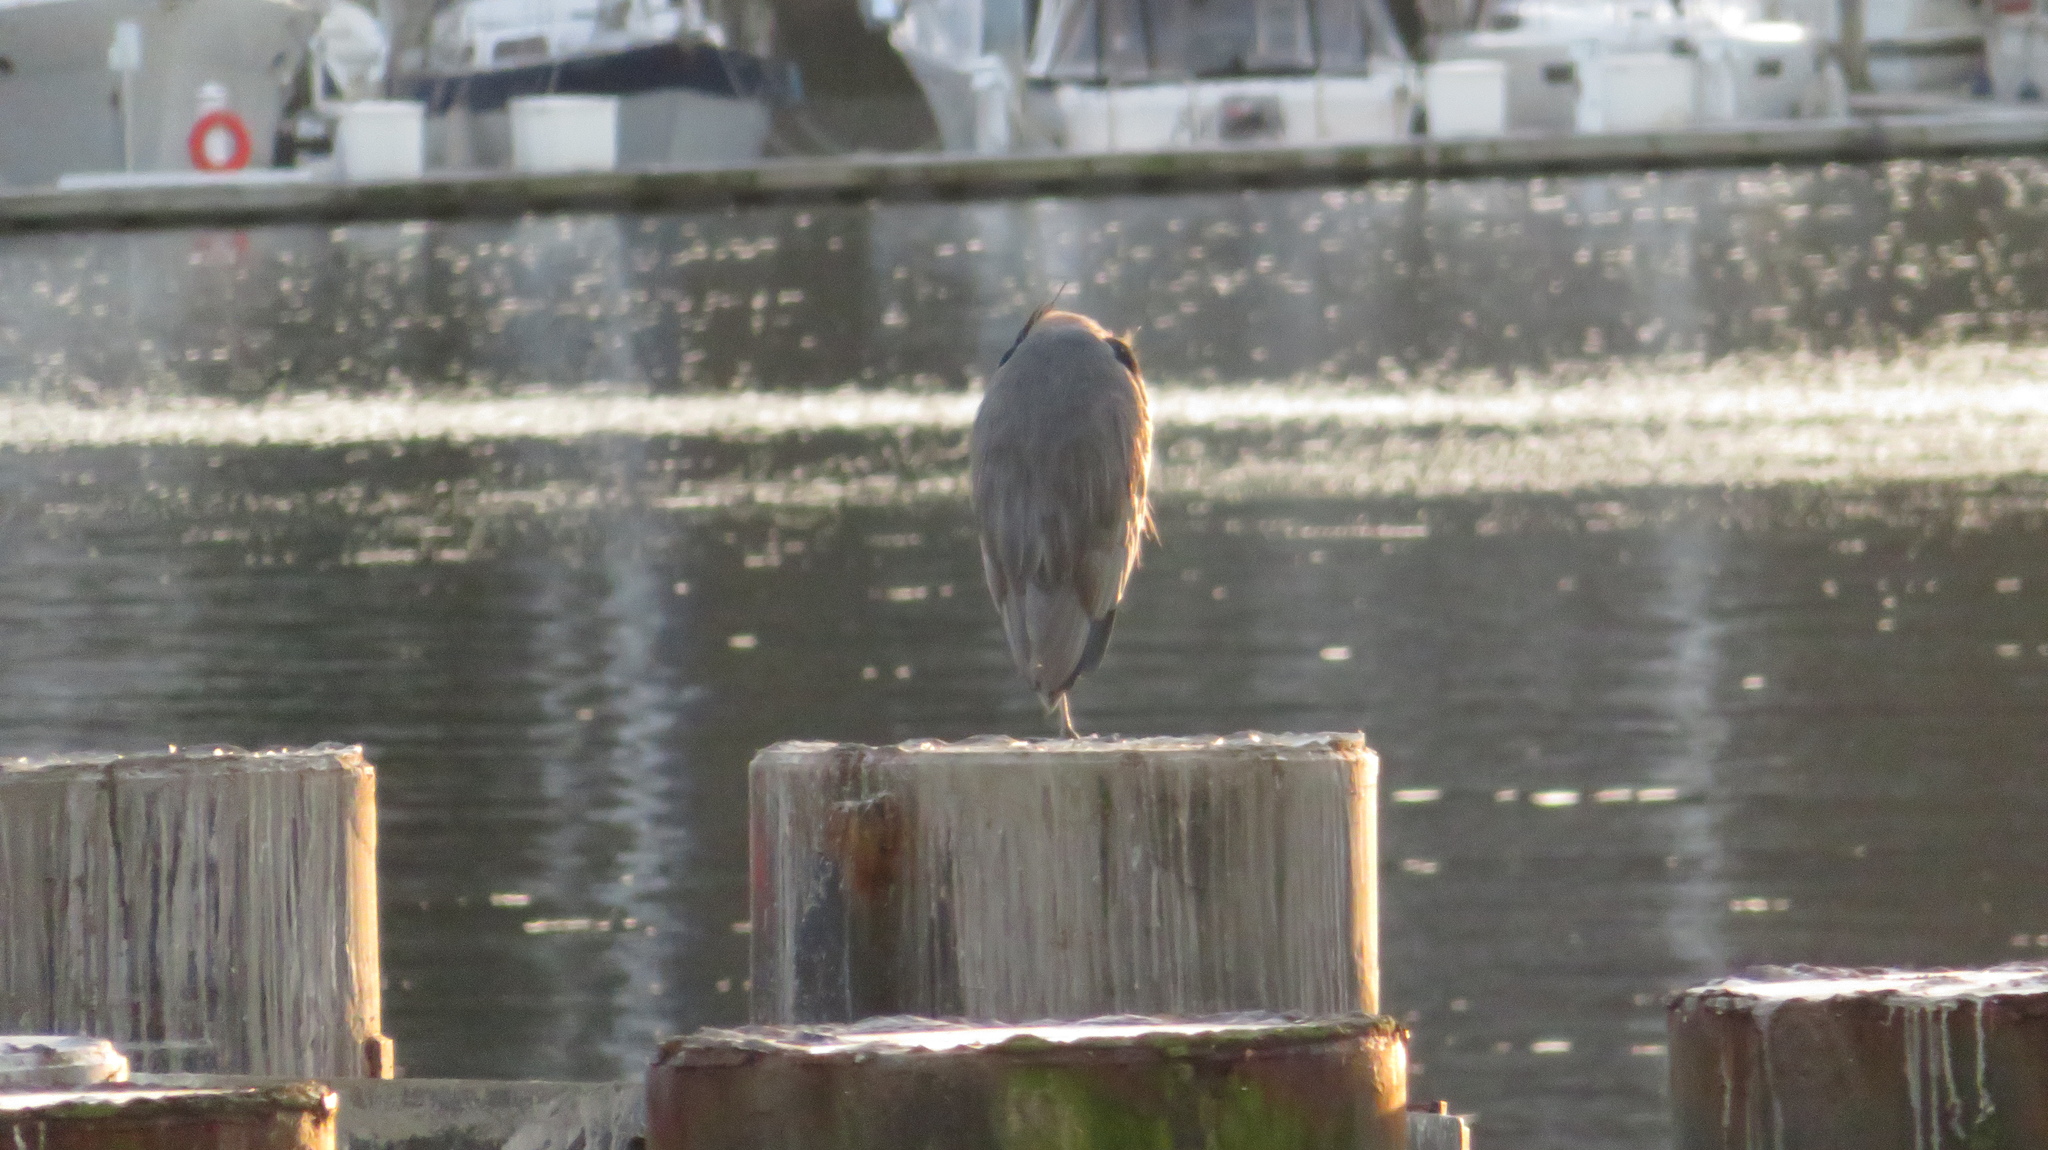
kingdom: Animalia
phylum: Chordata
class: Aves
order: Pelecaniformes
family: Ardeidae
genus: Ardea
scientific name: Ardea herodias
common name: Great blue heron
